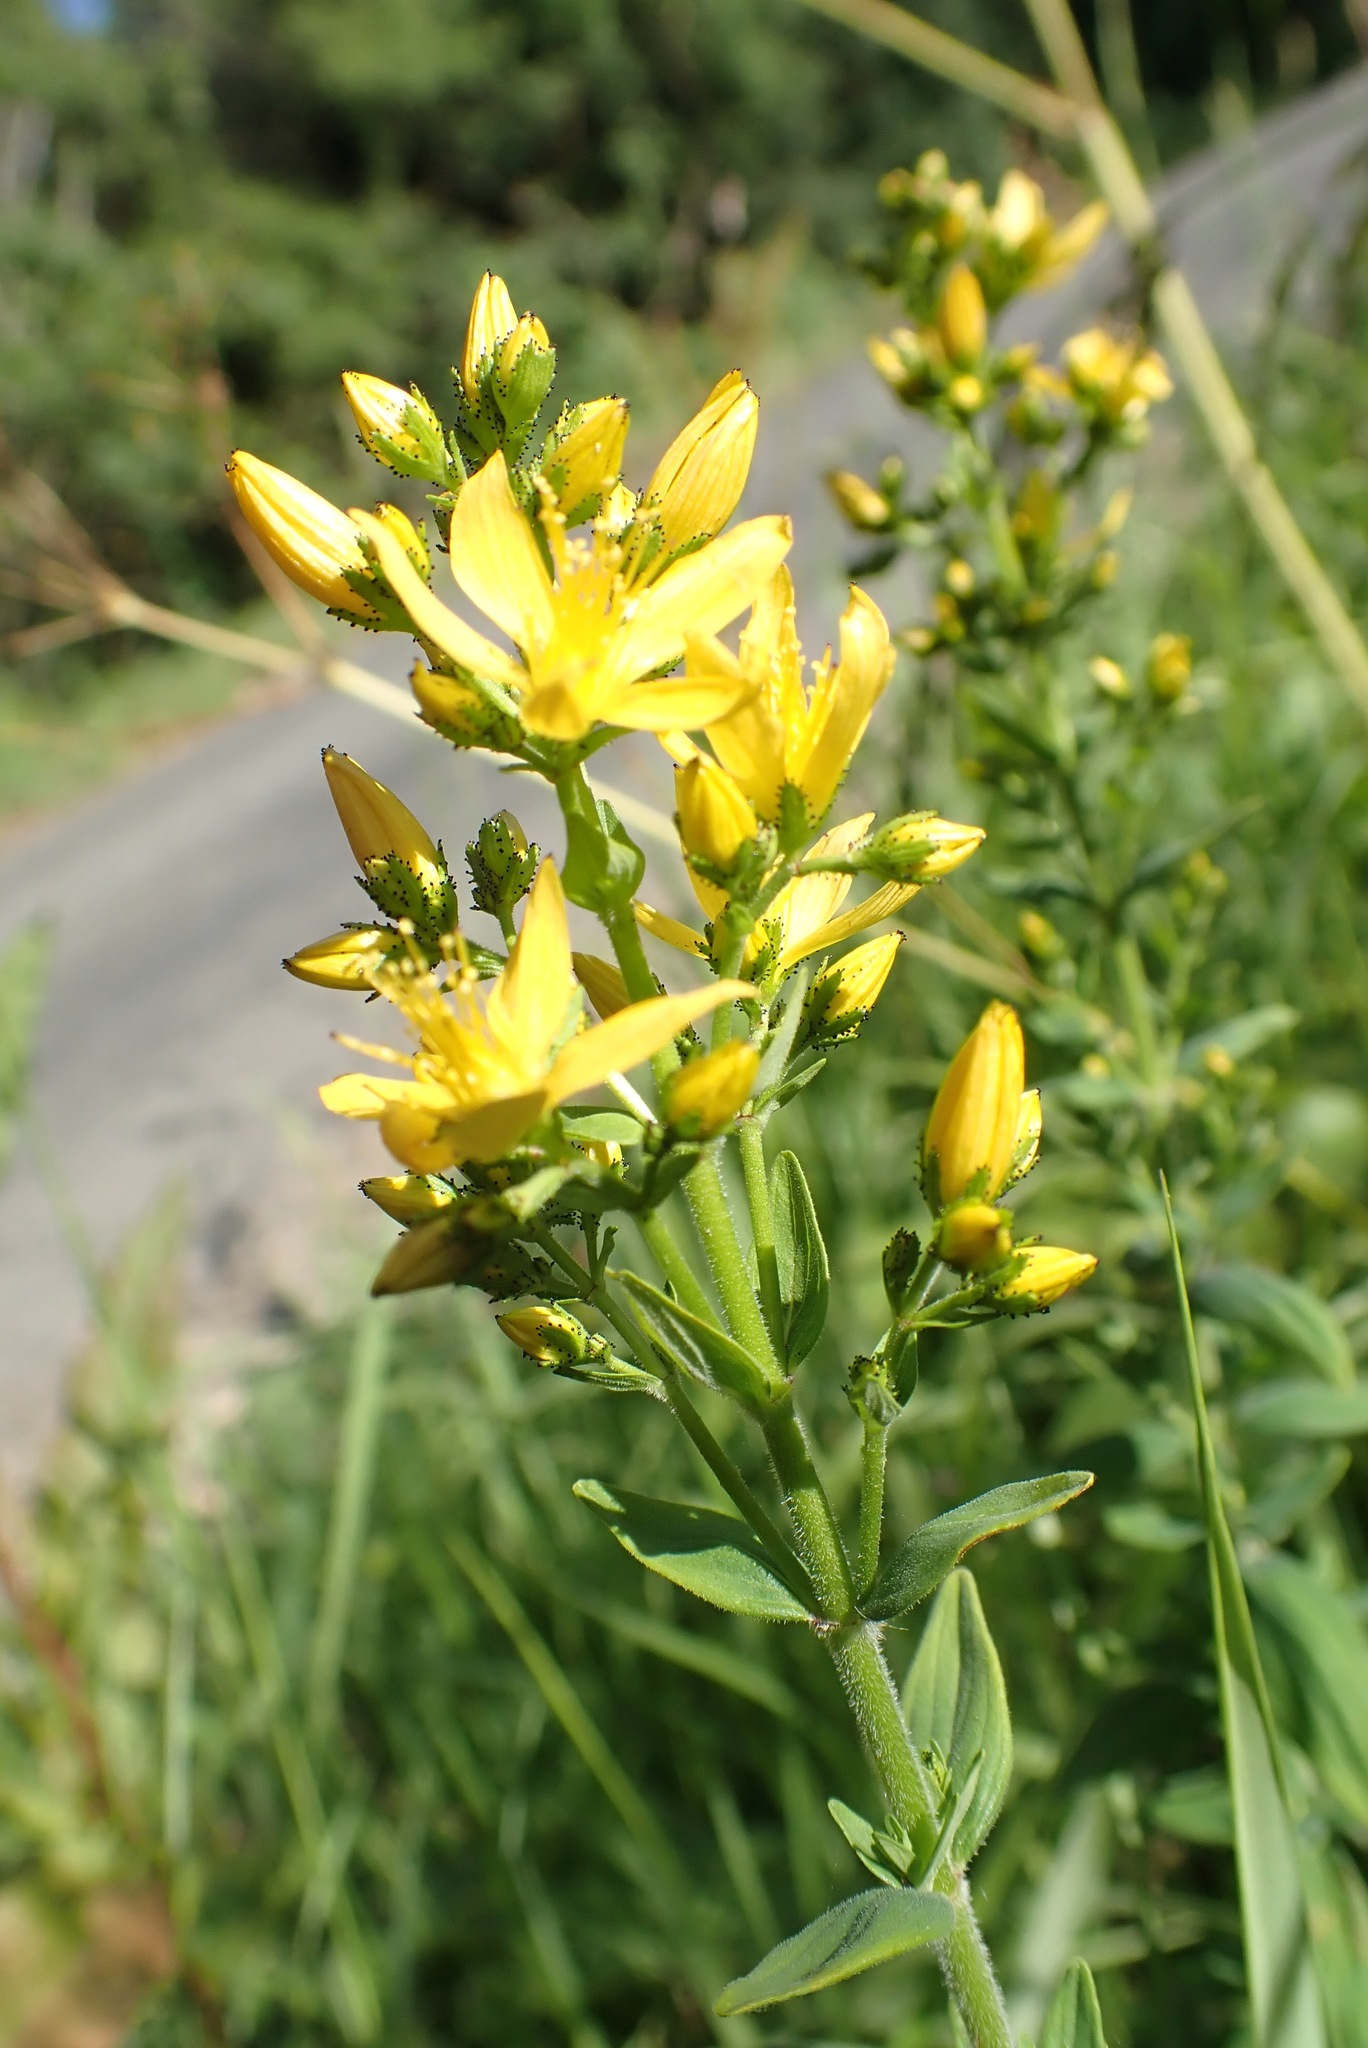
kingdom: Plantae
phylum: Tracheophyta
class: Magnoliopsida
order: Malpighiales
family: Hypericaceae
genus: Hypericum
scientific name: Hypericum hirsutum
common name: Hairy st. john's-wort
